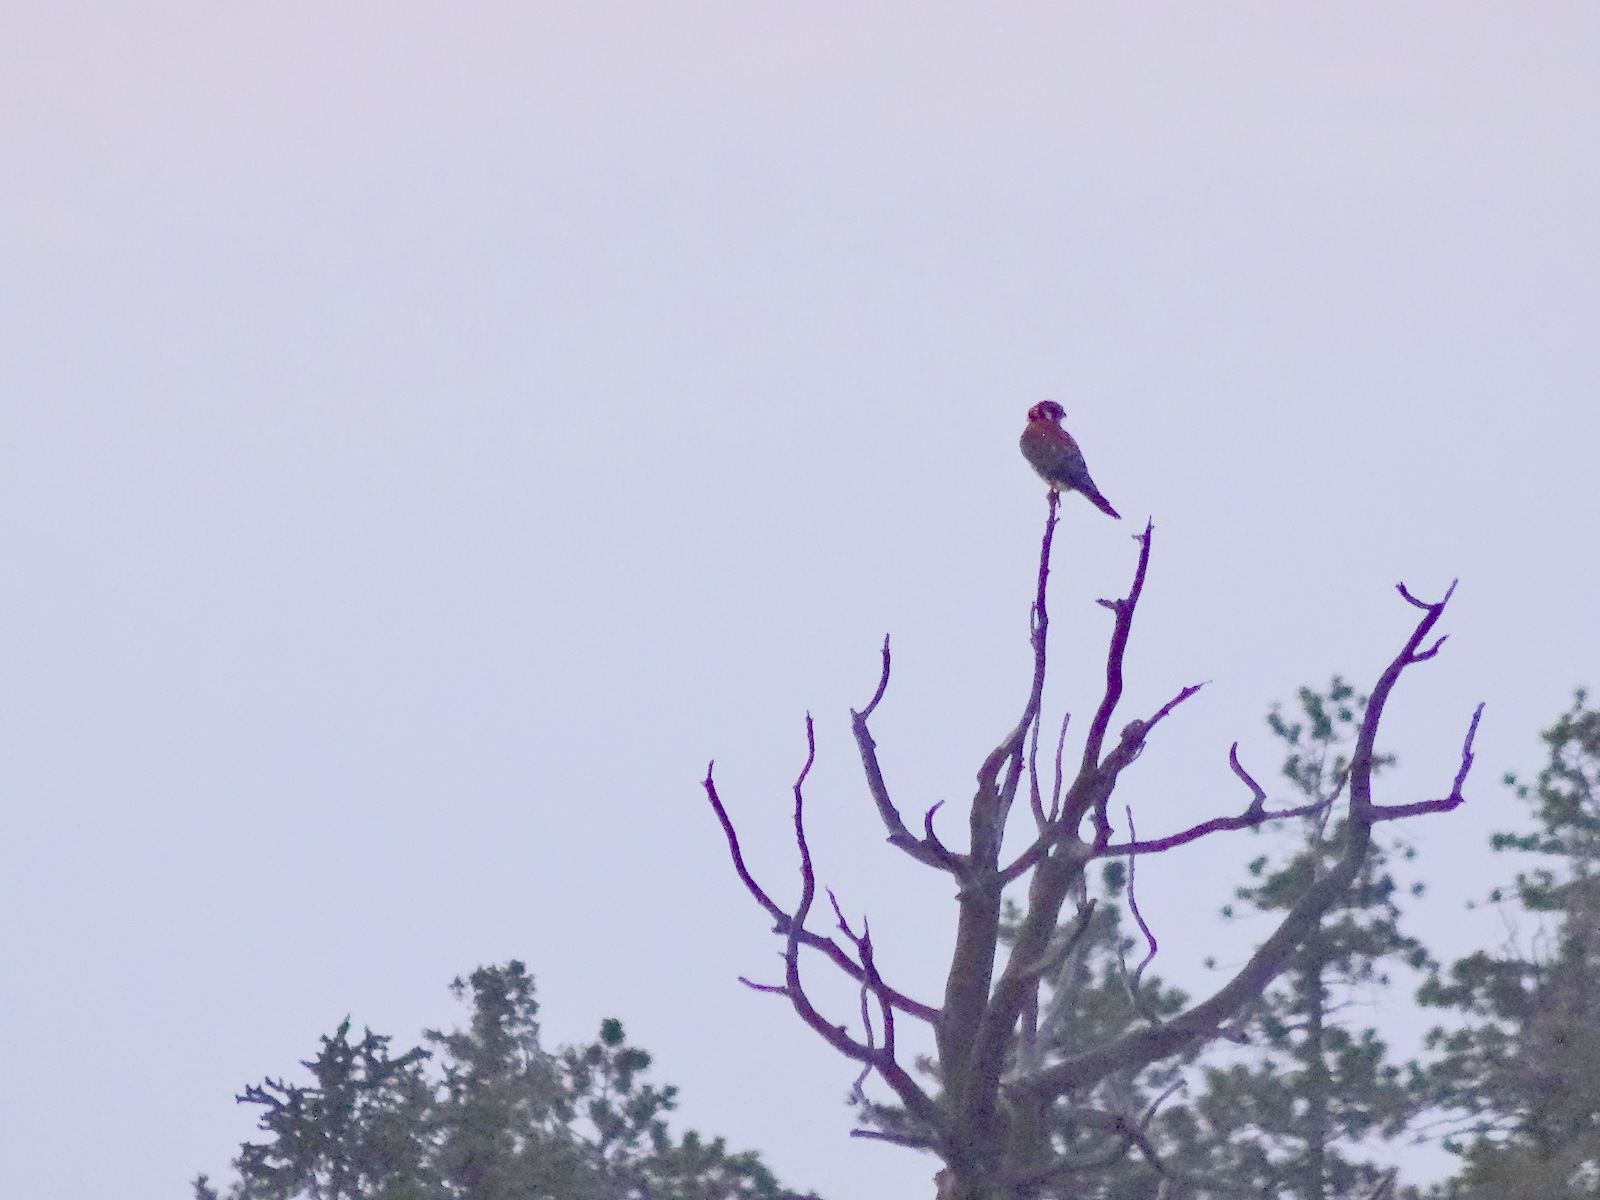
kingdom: Animalia
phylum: Chordata
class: Aves
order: Falconiformes
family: Falconidae
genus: Falco
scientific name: Falco sparverius
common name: American kestrel
